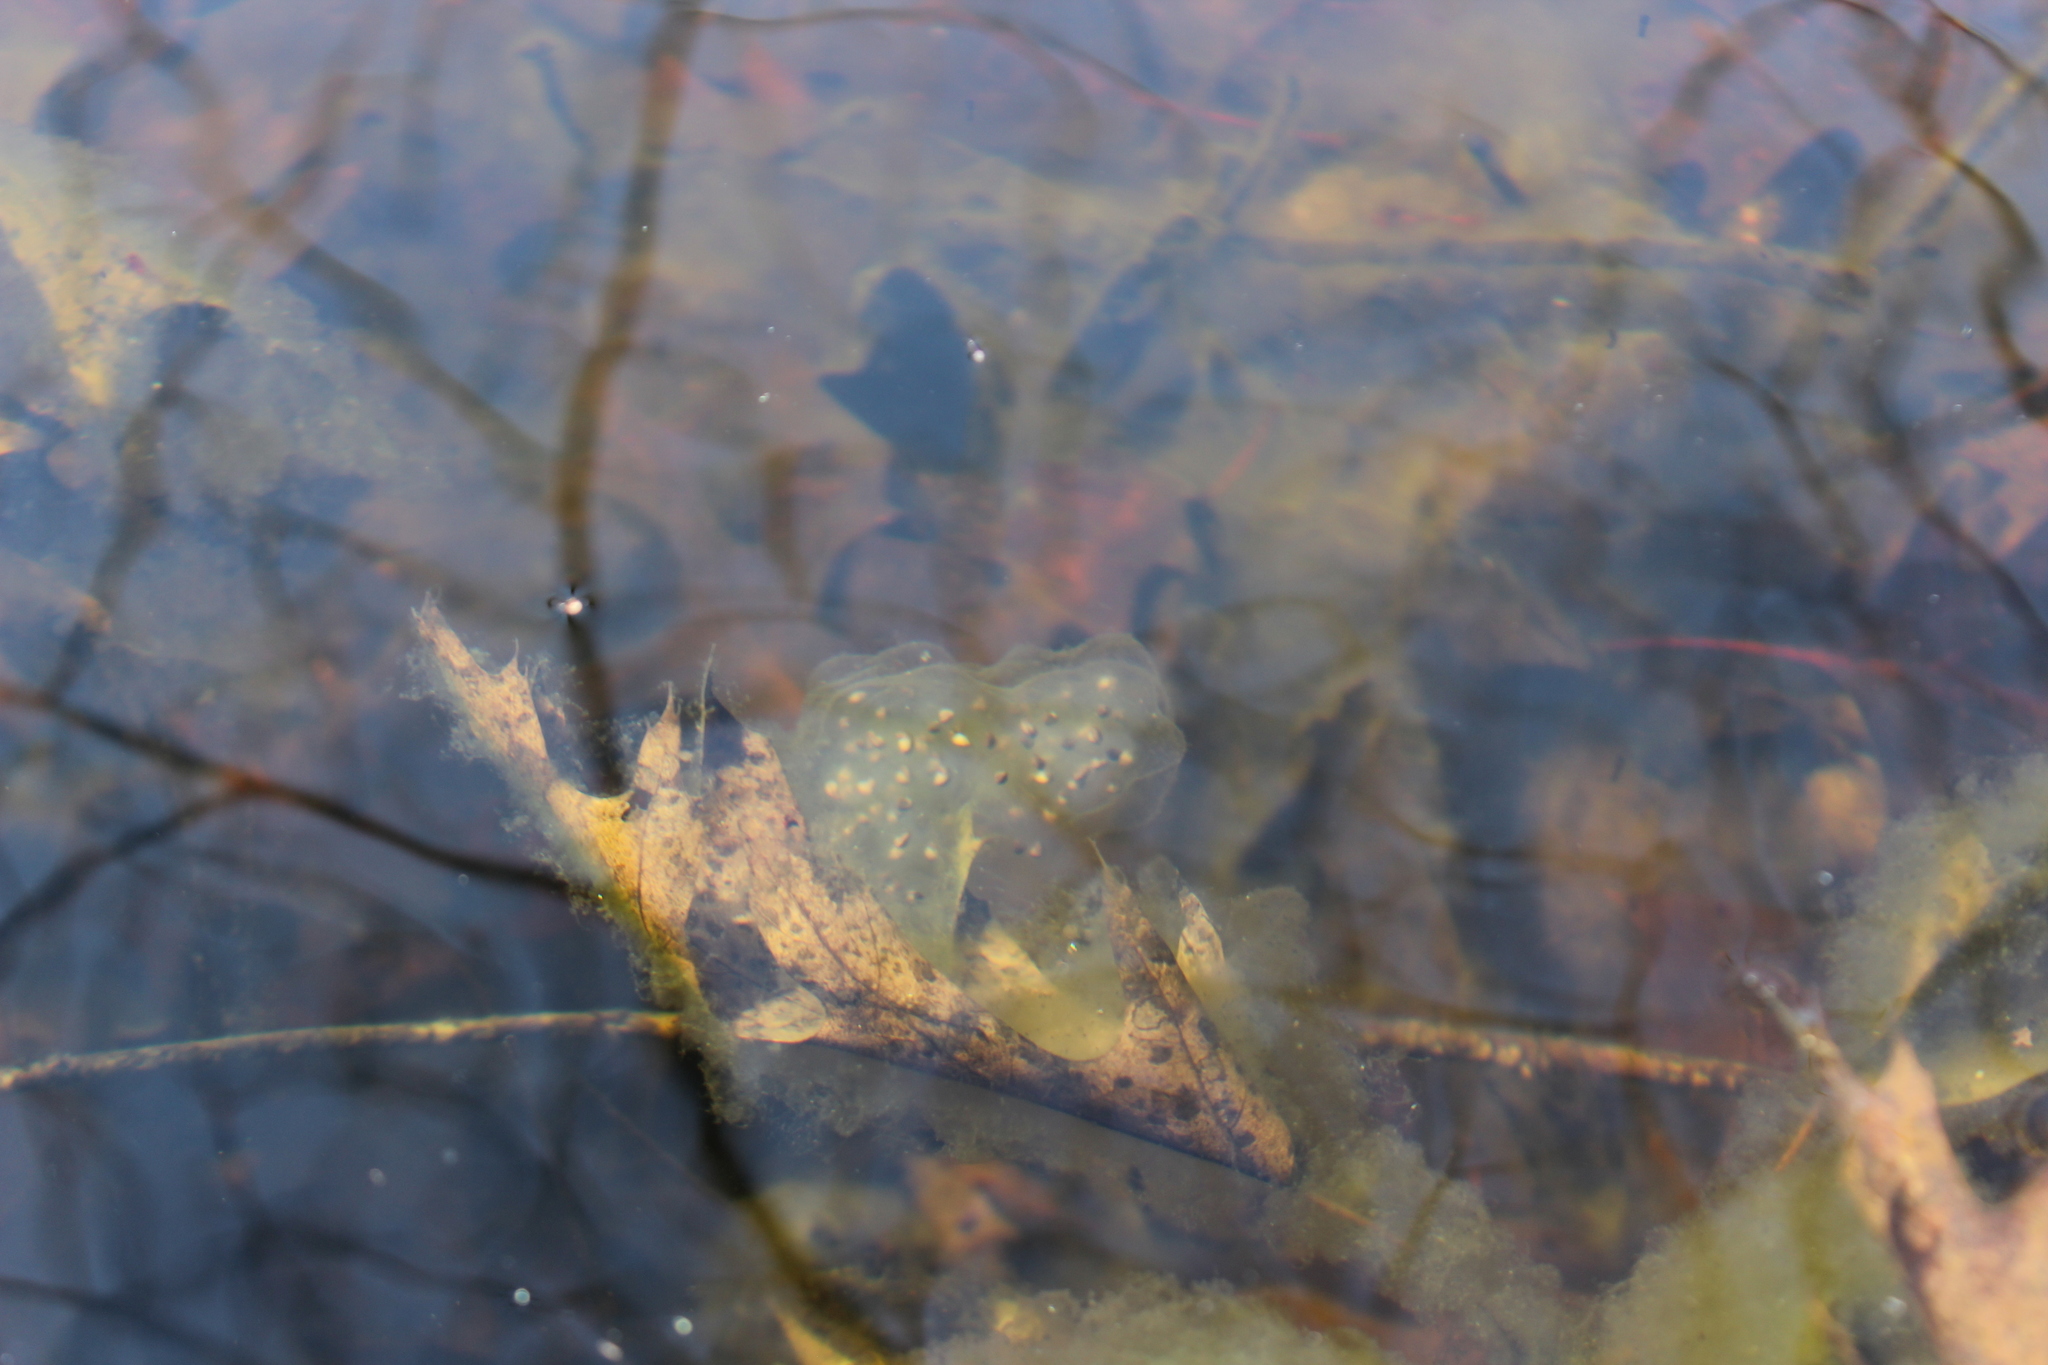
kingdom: Animalia
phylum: Chordata
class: Amphibia
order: Caudata
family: Ambystomatidae
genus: Ambystoma
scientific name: Ambystoma maculatum
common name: Spotted salamander
